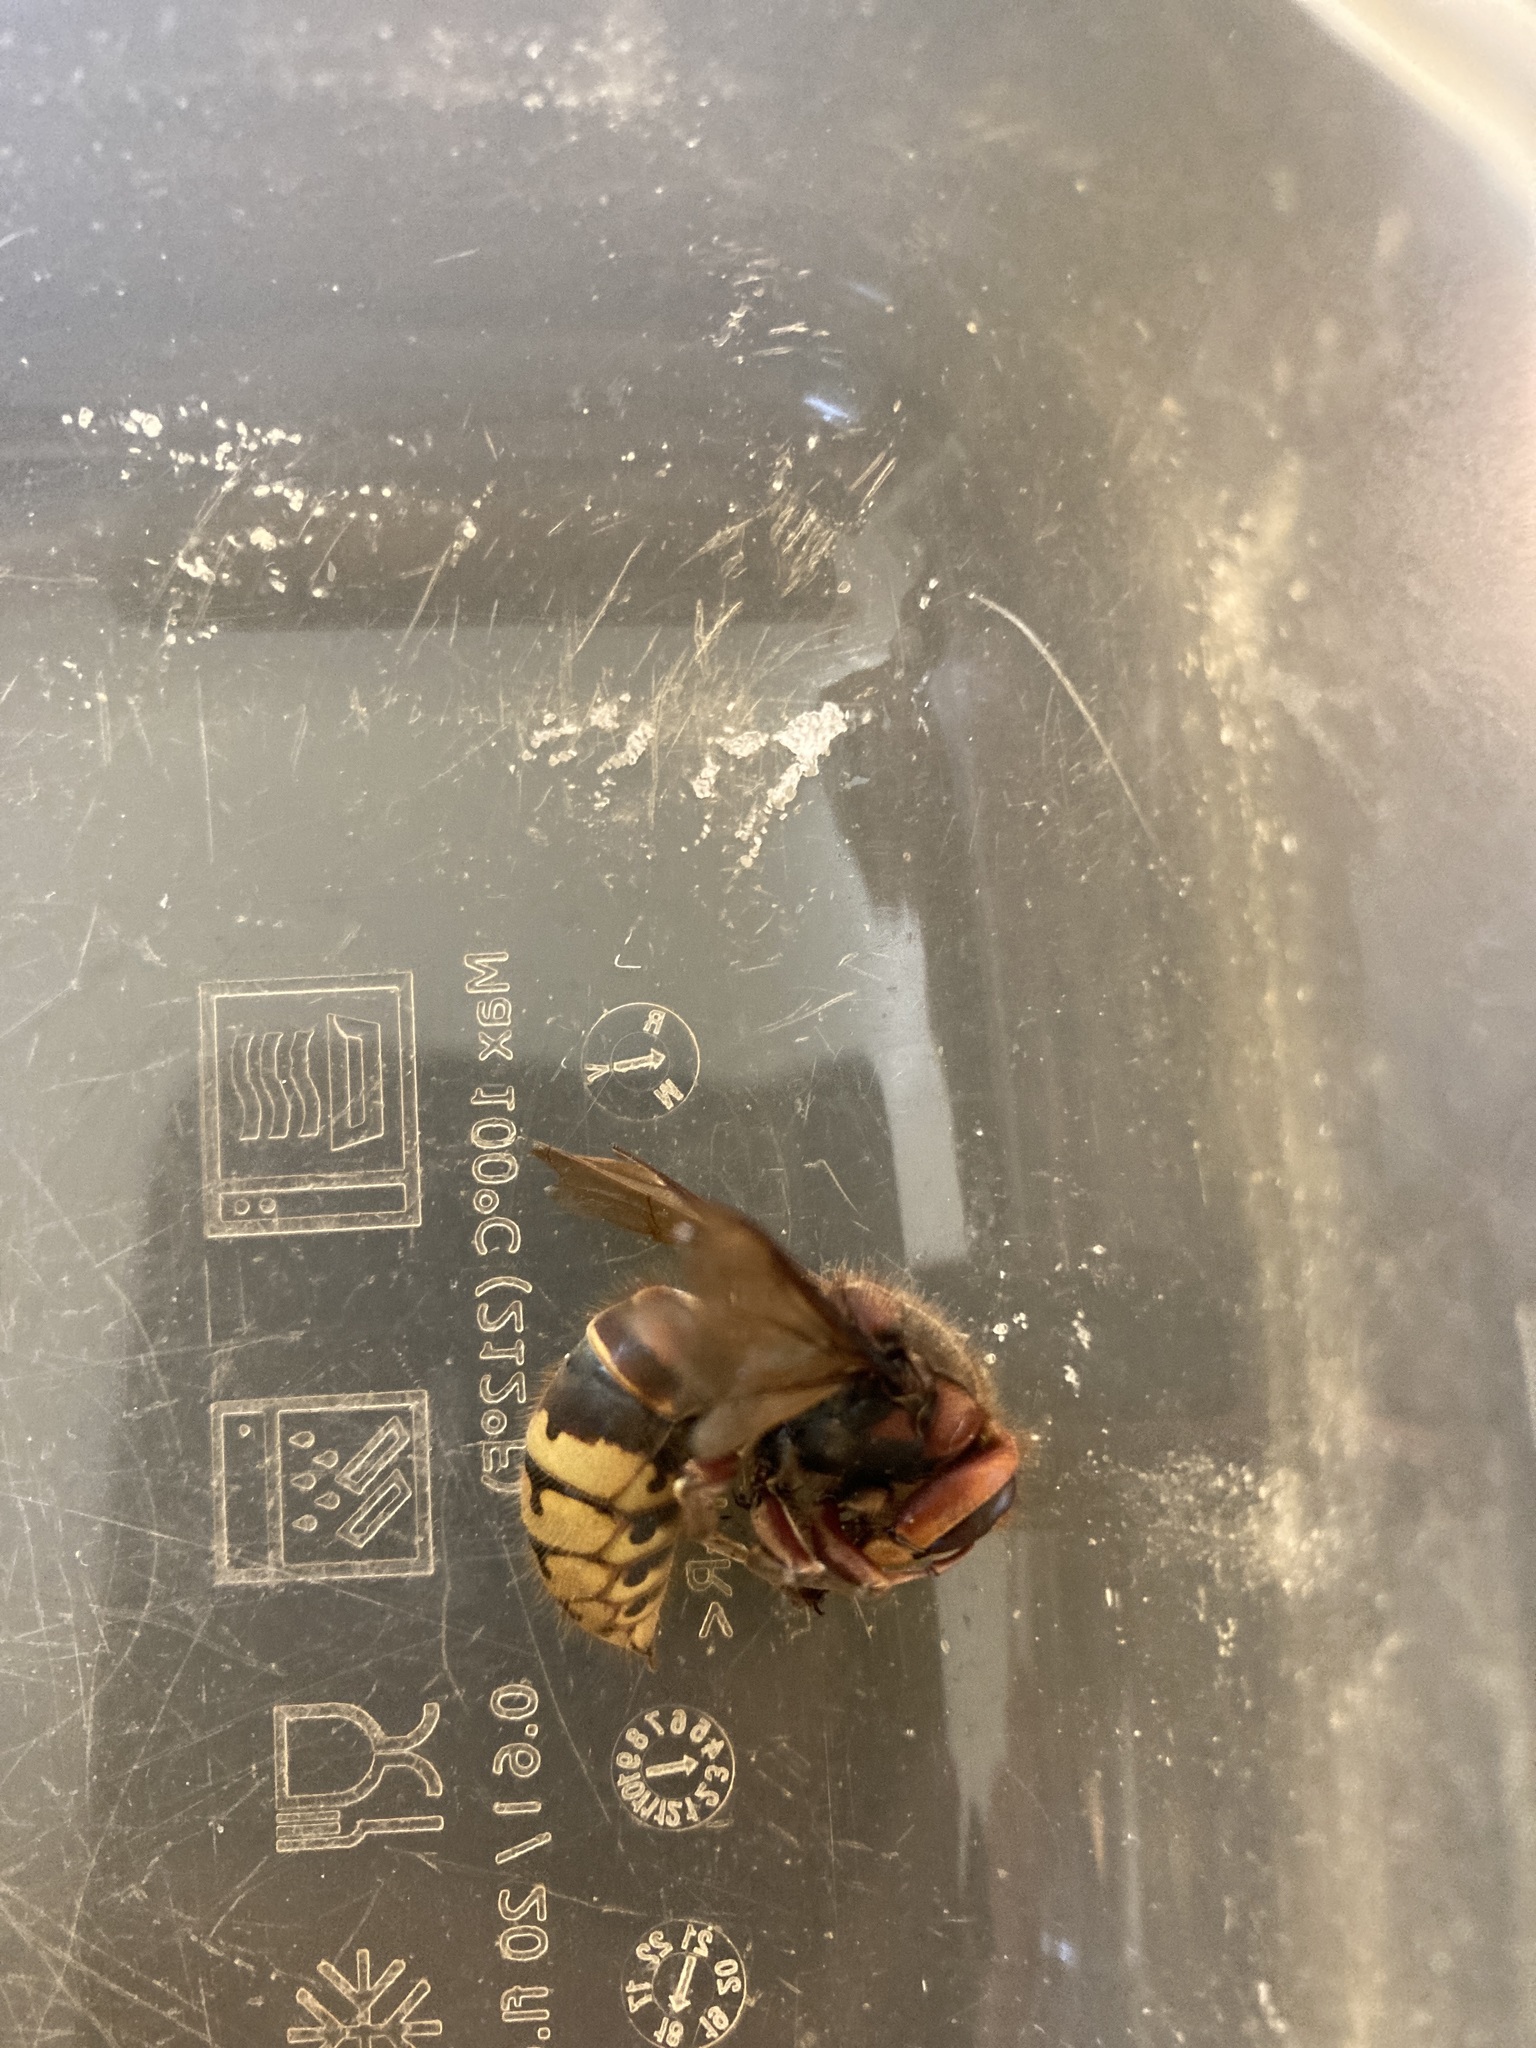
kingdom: Animalia
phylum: Arthropoda
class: Insecta
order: Hymenoptera
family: Vespidae
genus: Vespa
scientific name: Vespa crabro
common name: Hornet
